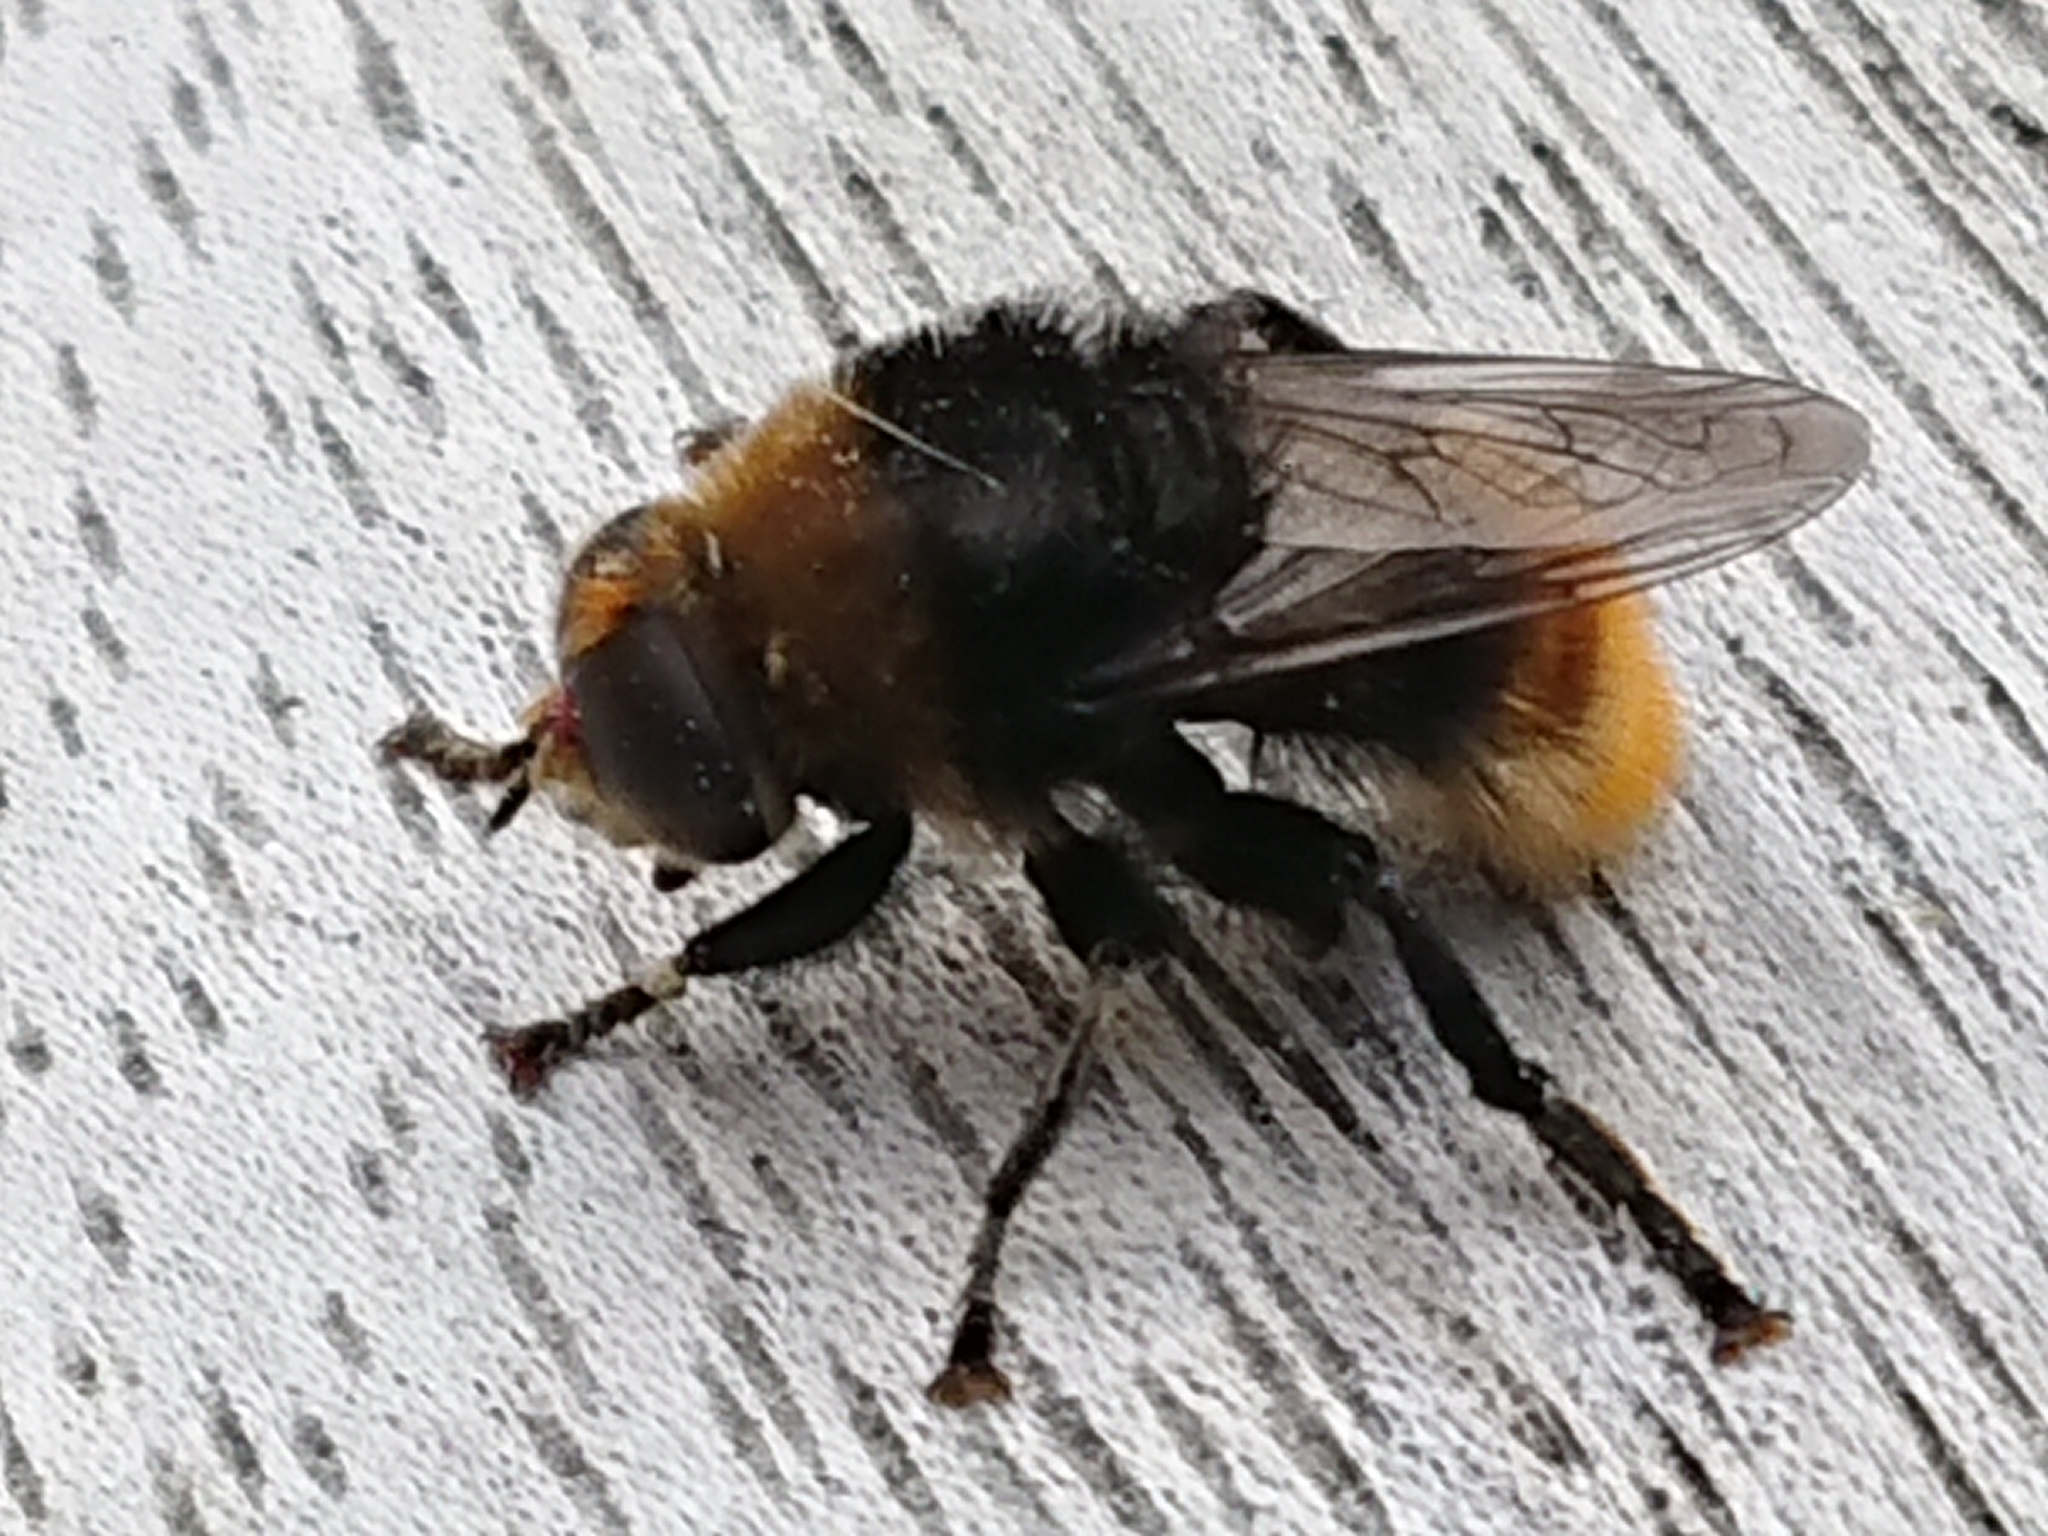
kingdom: Animalia
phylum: Arthropoda
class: Insecta
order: Diptera
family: Syrphidae
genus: Merodon
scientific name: Merodon equestris
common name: Greater bulb-fly
